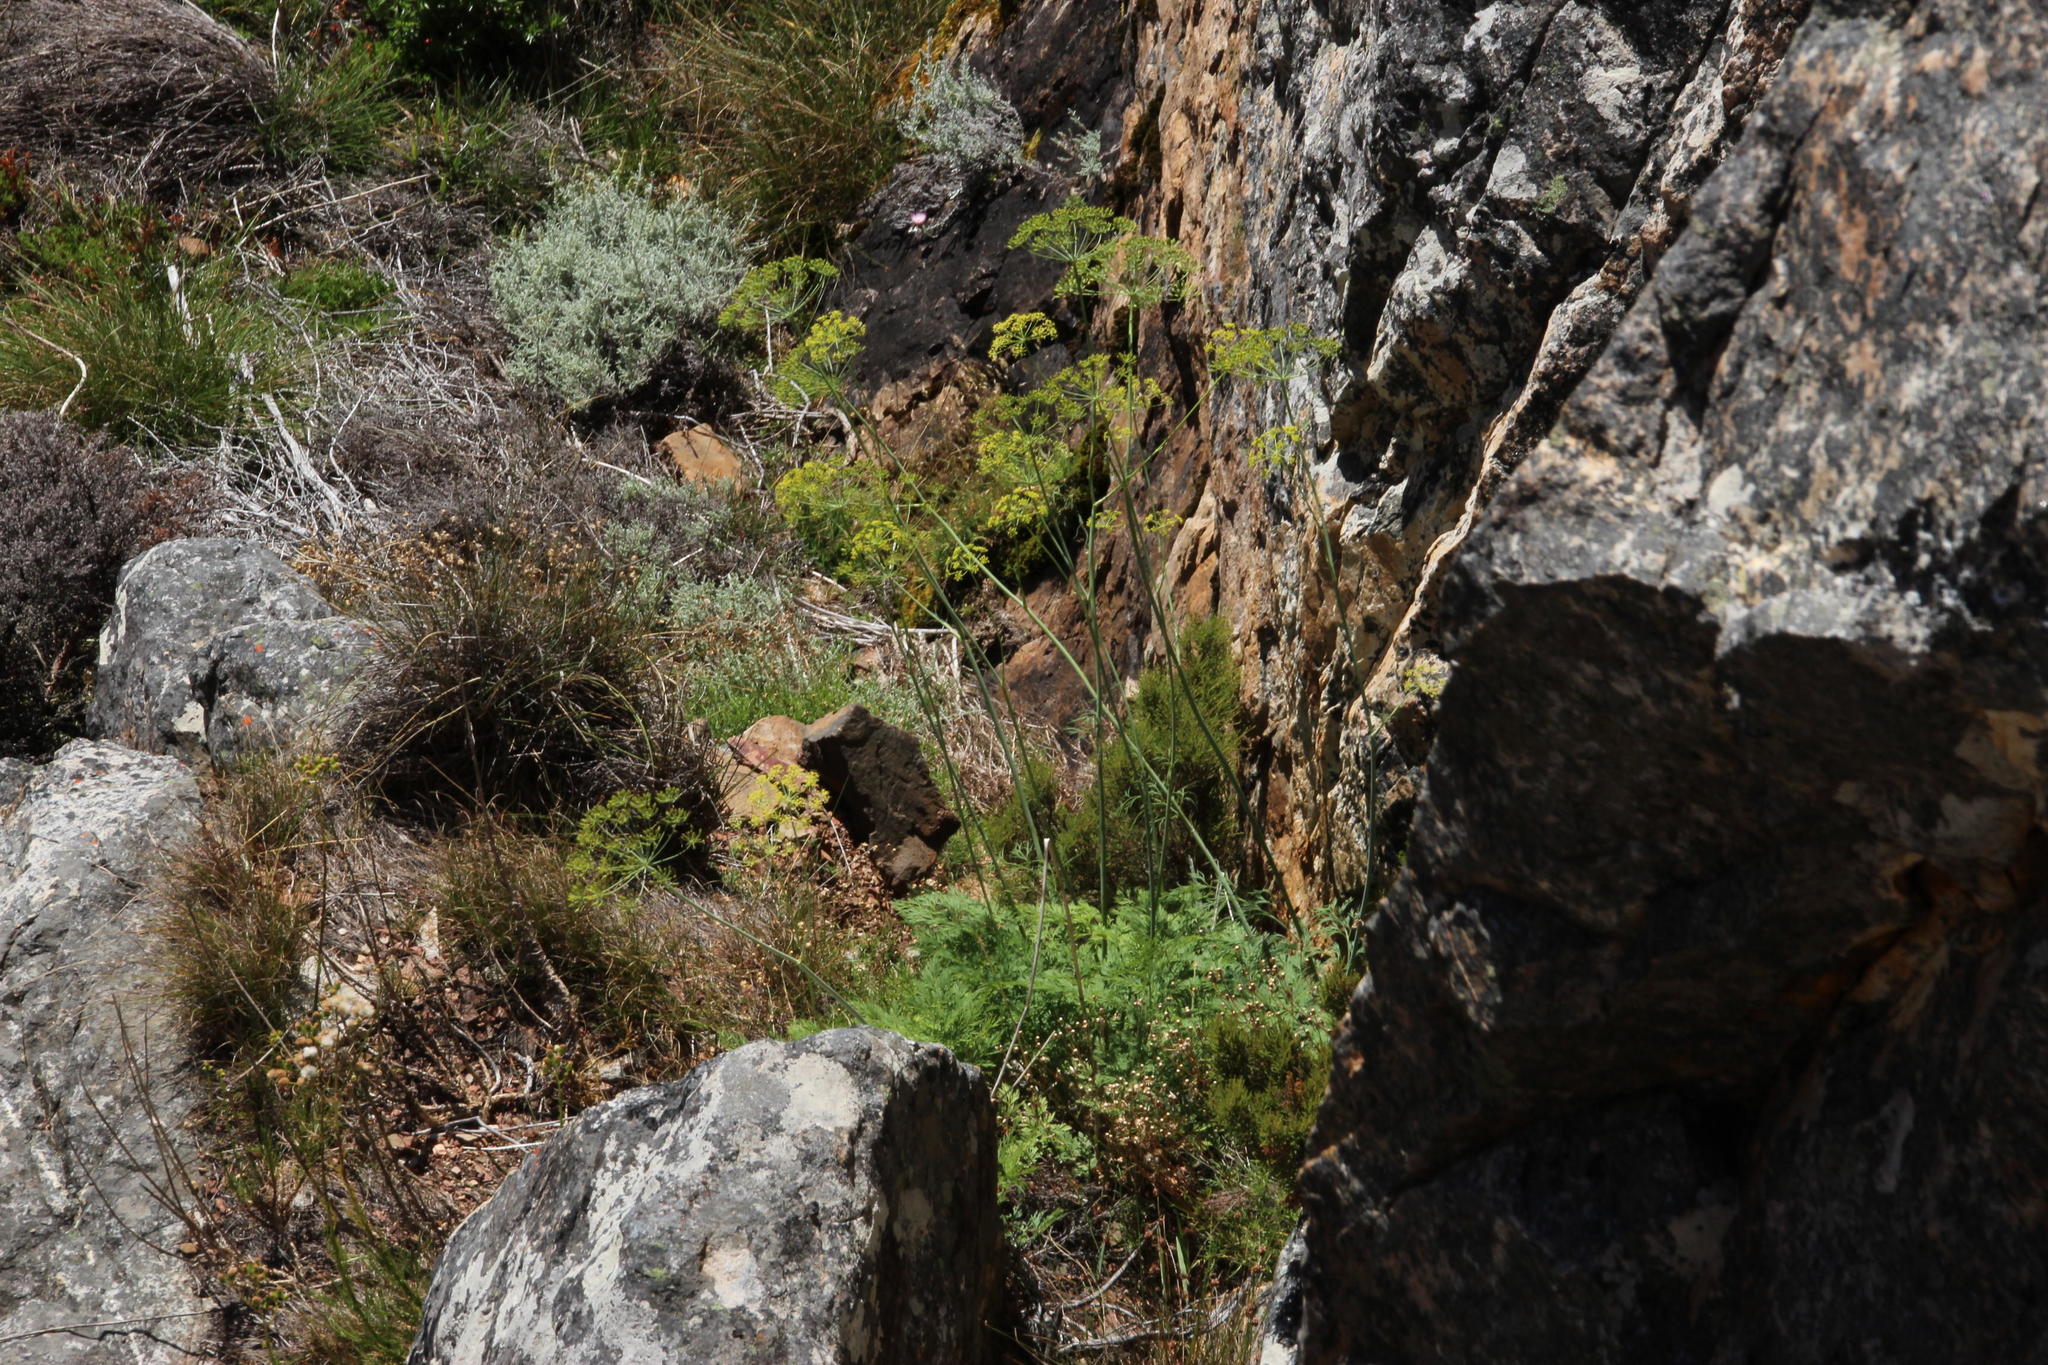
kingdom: Plantae
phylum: Tracheophyta
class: Magnoliopsida
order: Apiales
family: Apiaceae
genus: Notobubon
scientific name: Notobubon sonderi
